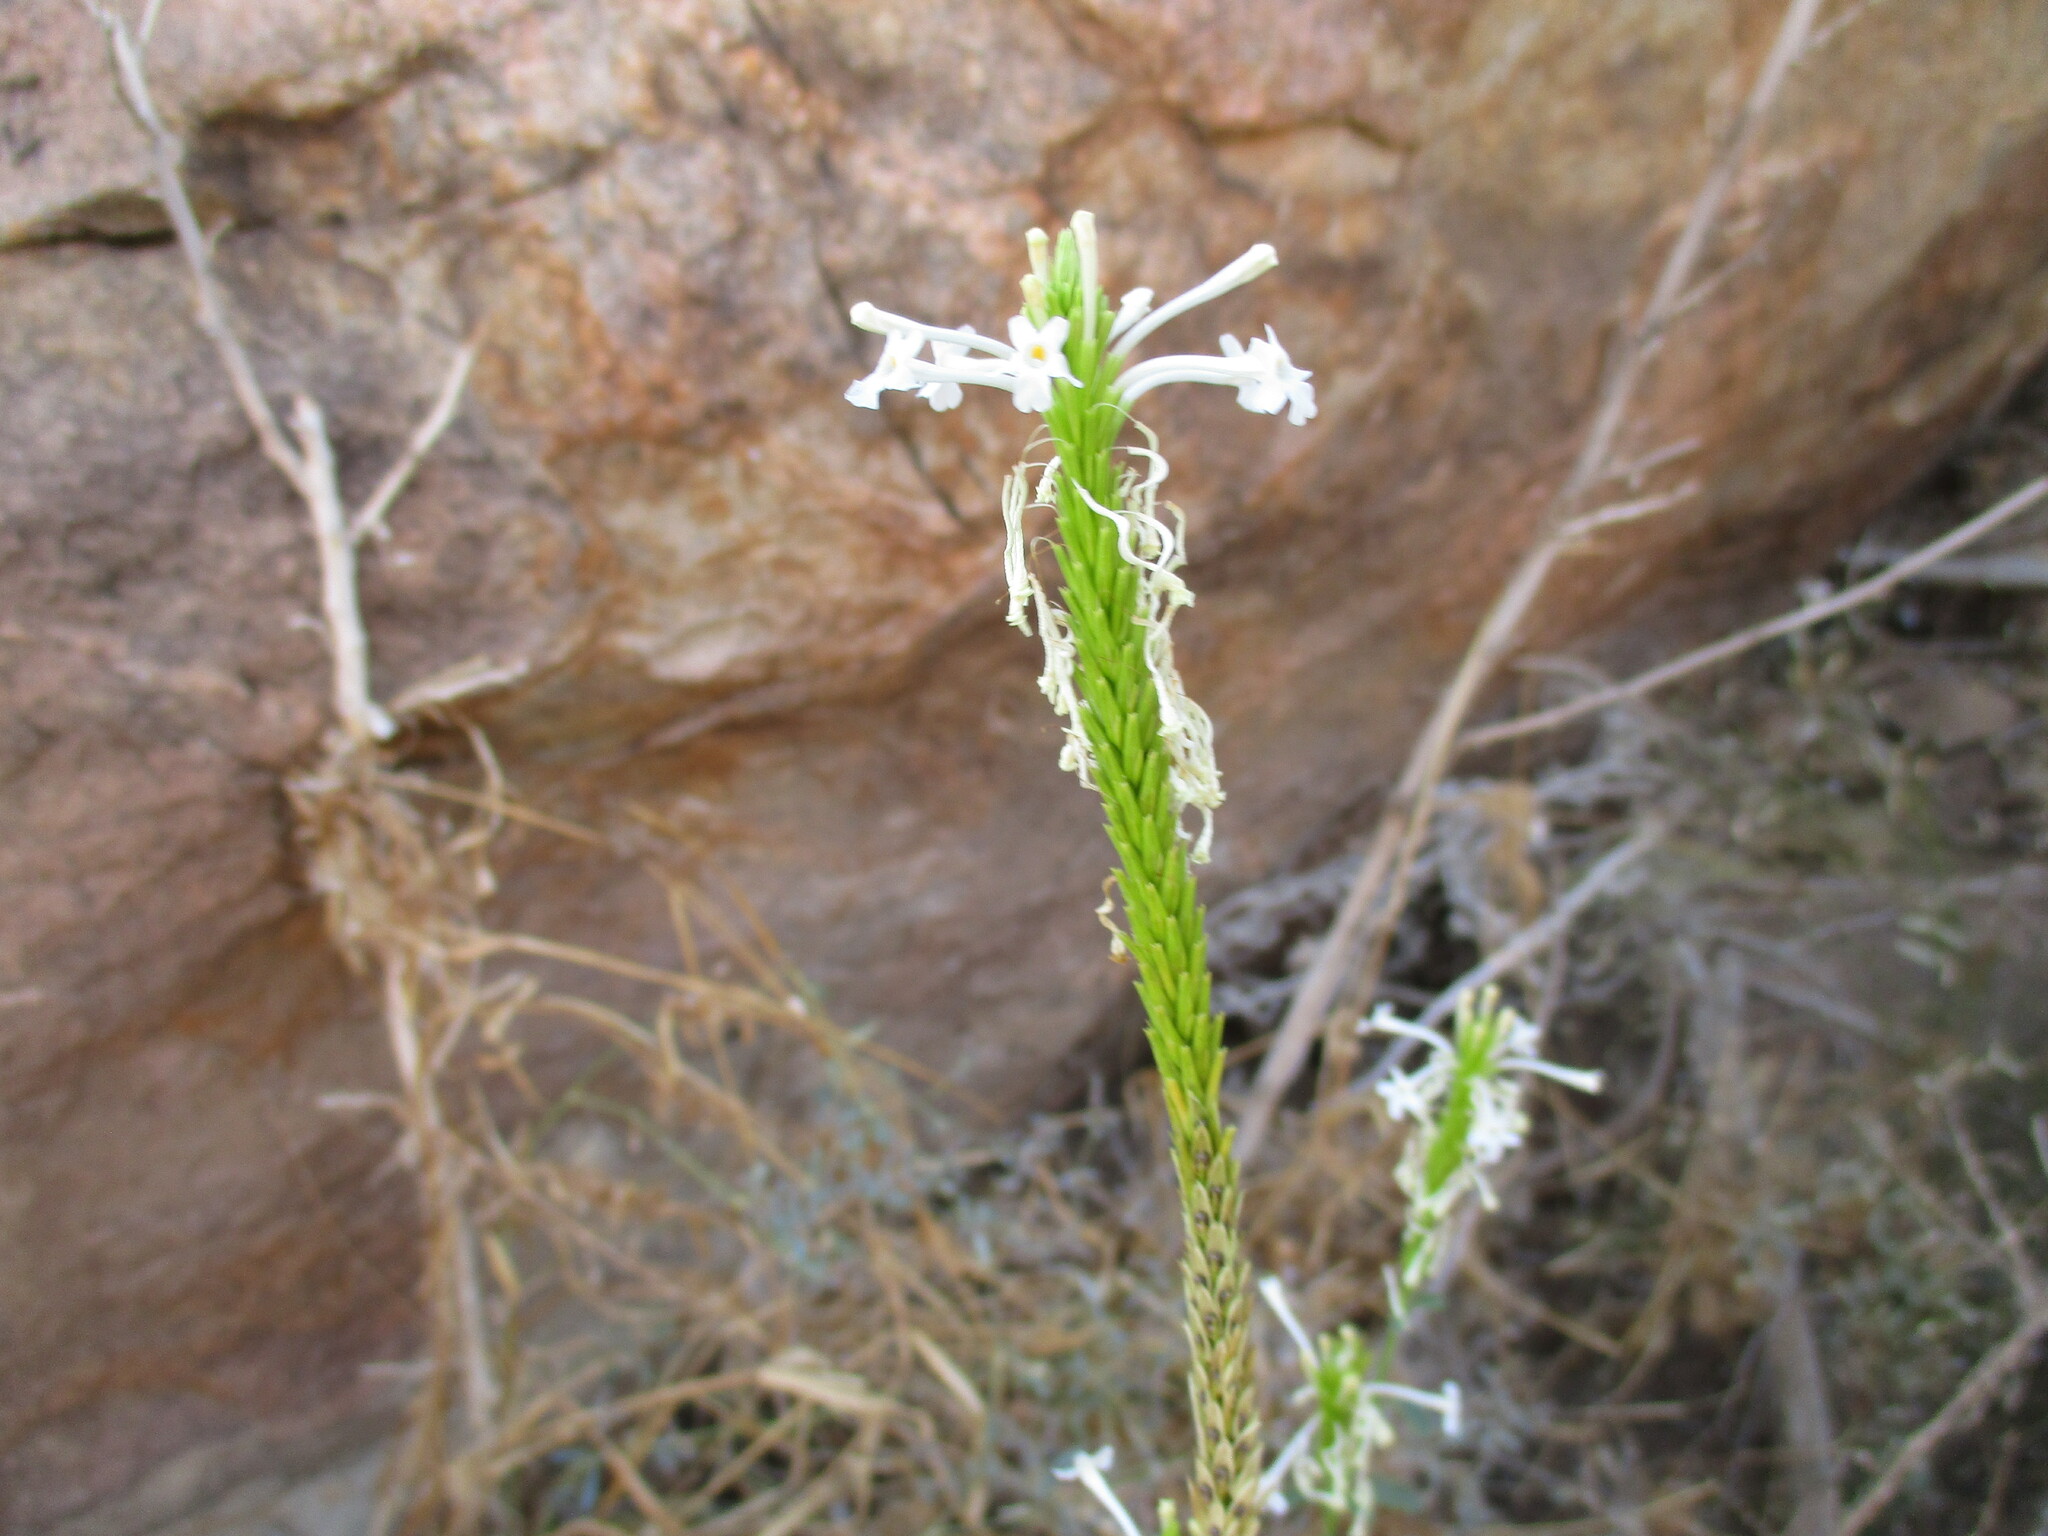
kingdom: Plantae
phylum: Tracheophyta
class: Magnoliopsida
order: Lamiales
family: Verbenaceae
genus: Chascanum
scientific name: Chascanum garipense
